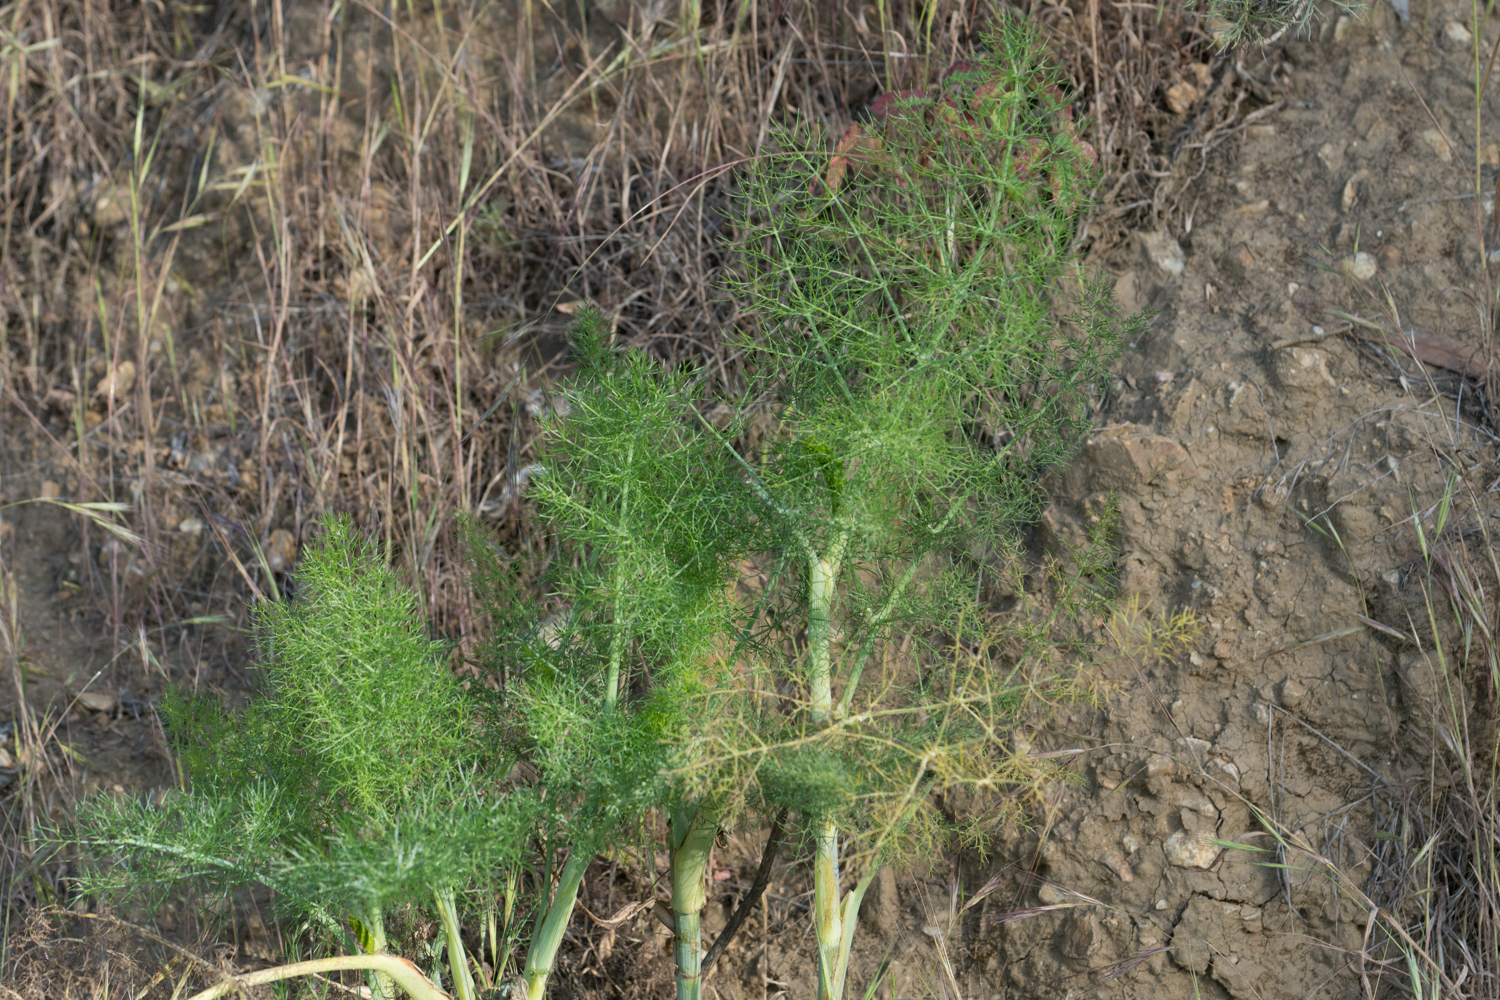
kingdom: Plantae
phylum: Tracheophyta
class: Magnoliopsida
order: Apiales
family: Apiaceae
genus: Foeniculum
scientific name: Foeniculum vulgare
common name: Fennel
